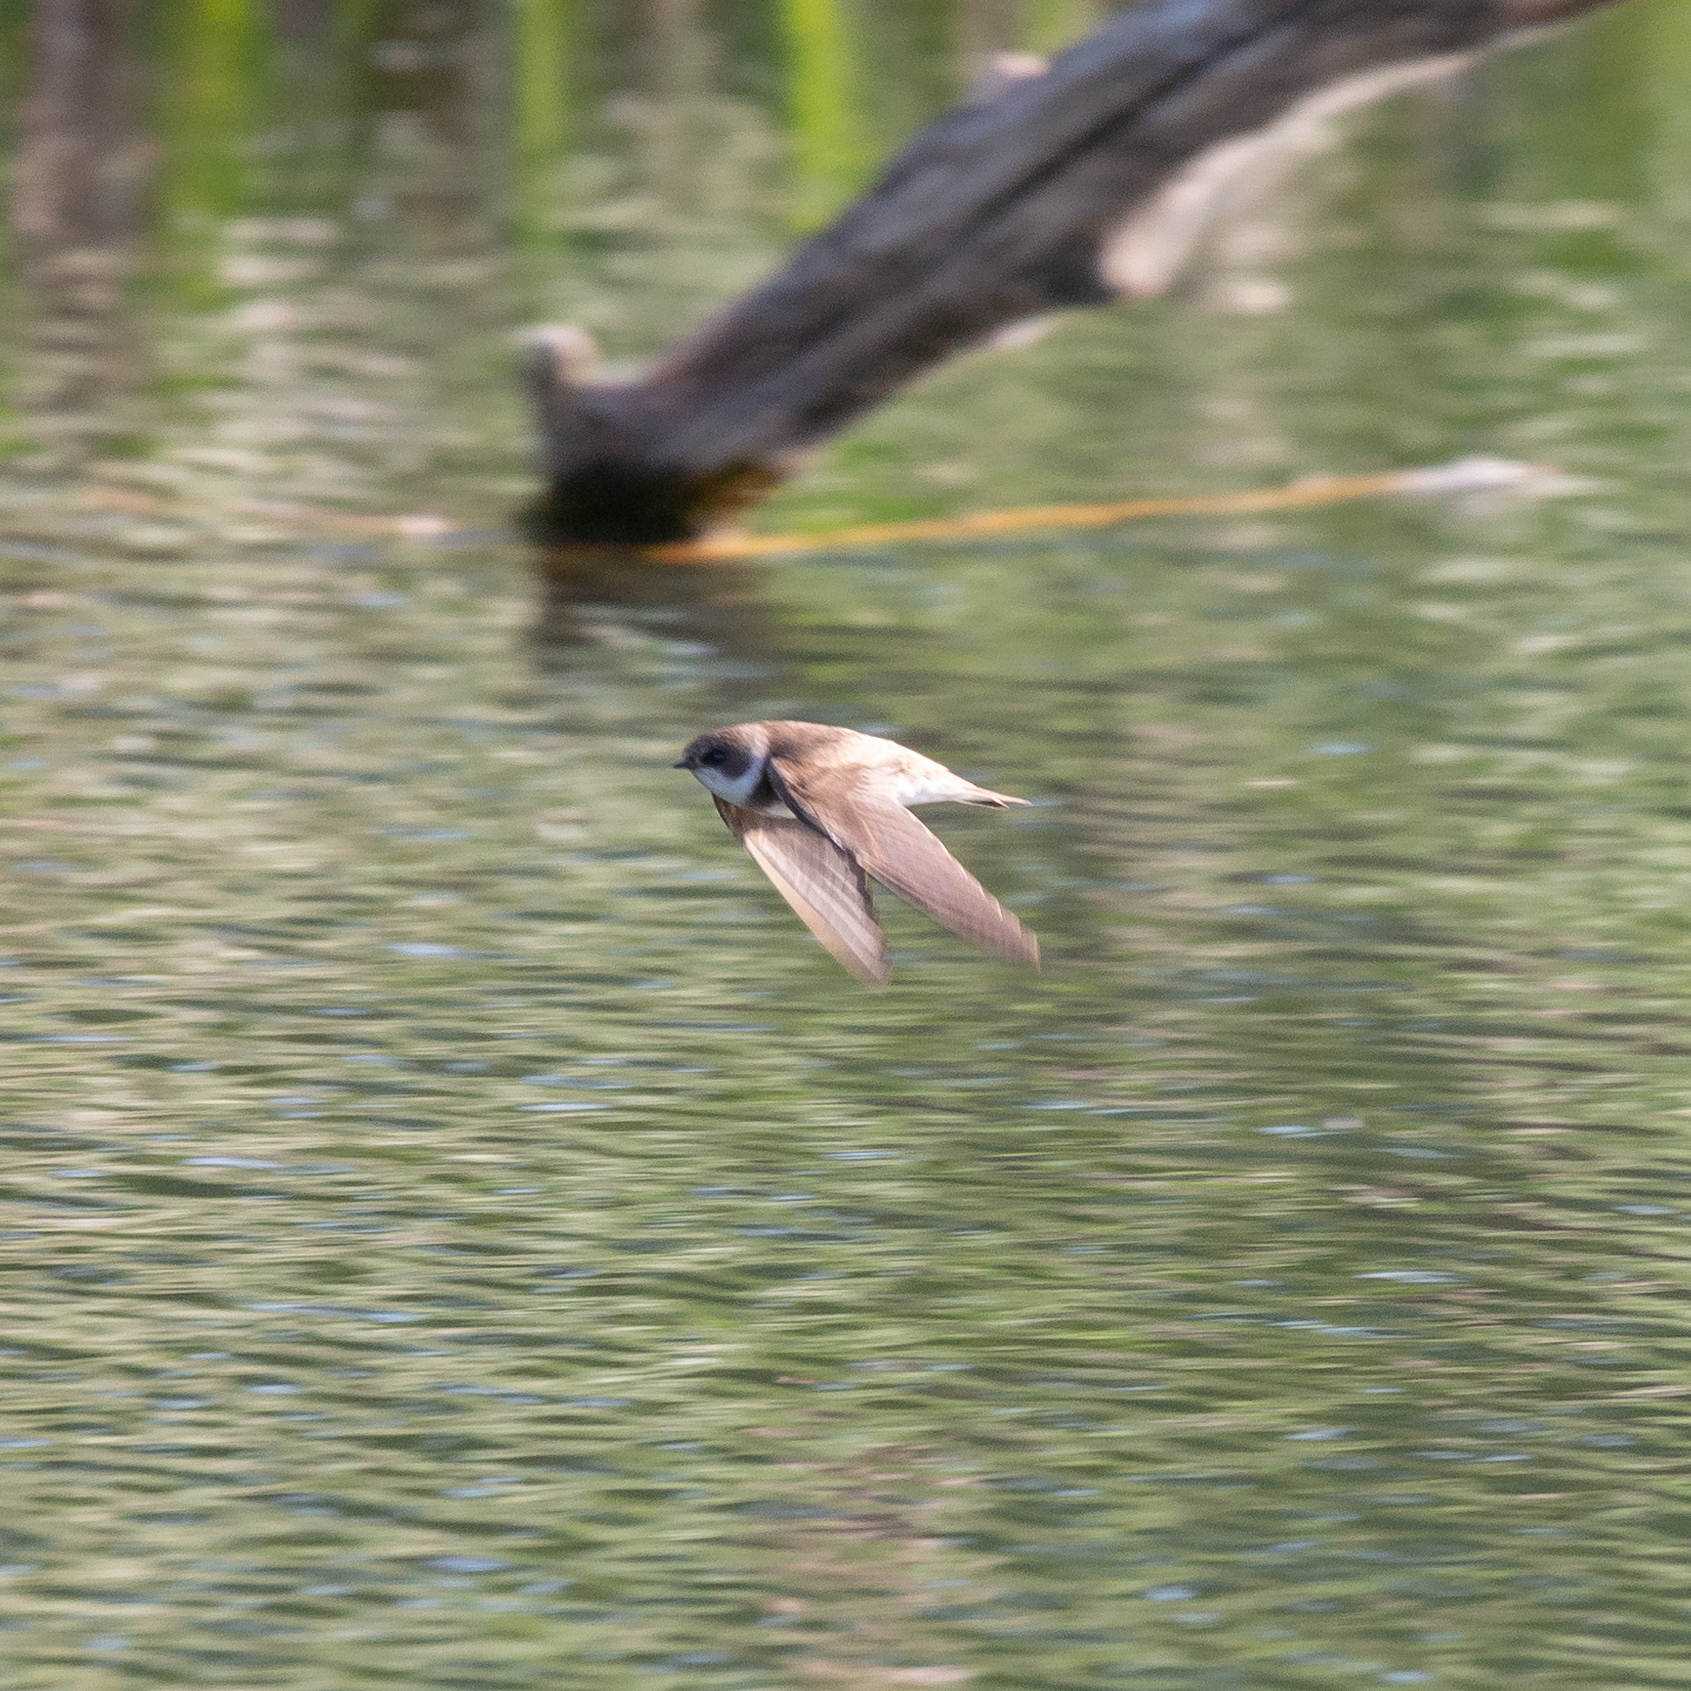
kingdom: Animalia
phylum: Chordata
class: Aves
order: Passeriformes
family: Hirundinidae
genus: Riparia
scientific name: Riparia riparia
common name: Sand martin
